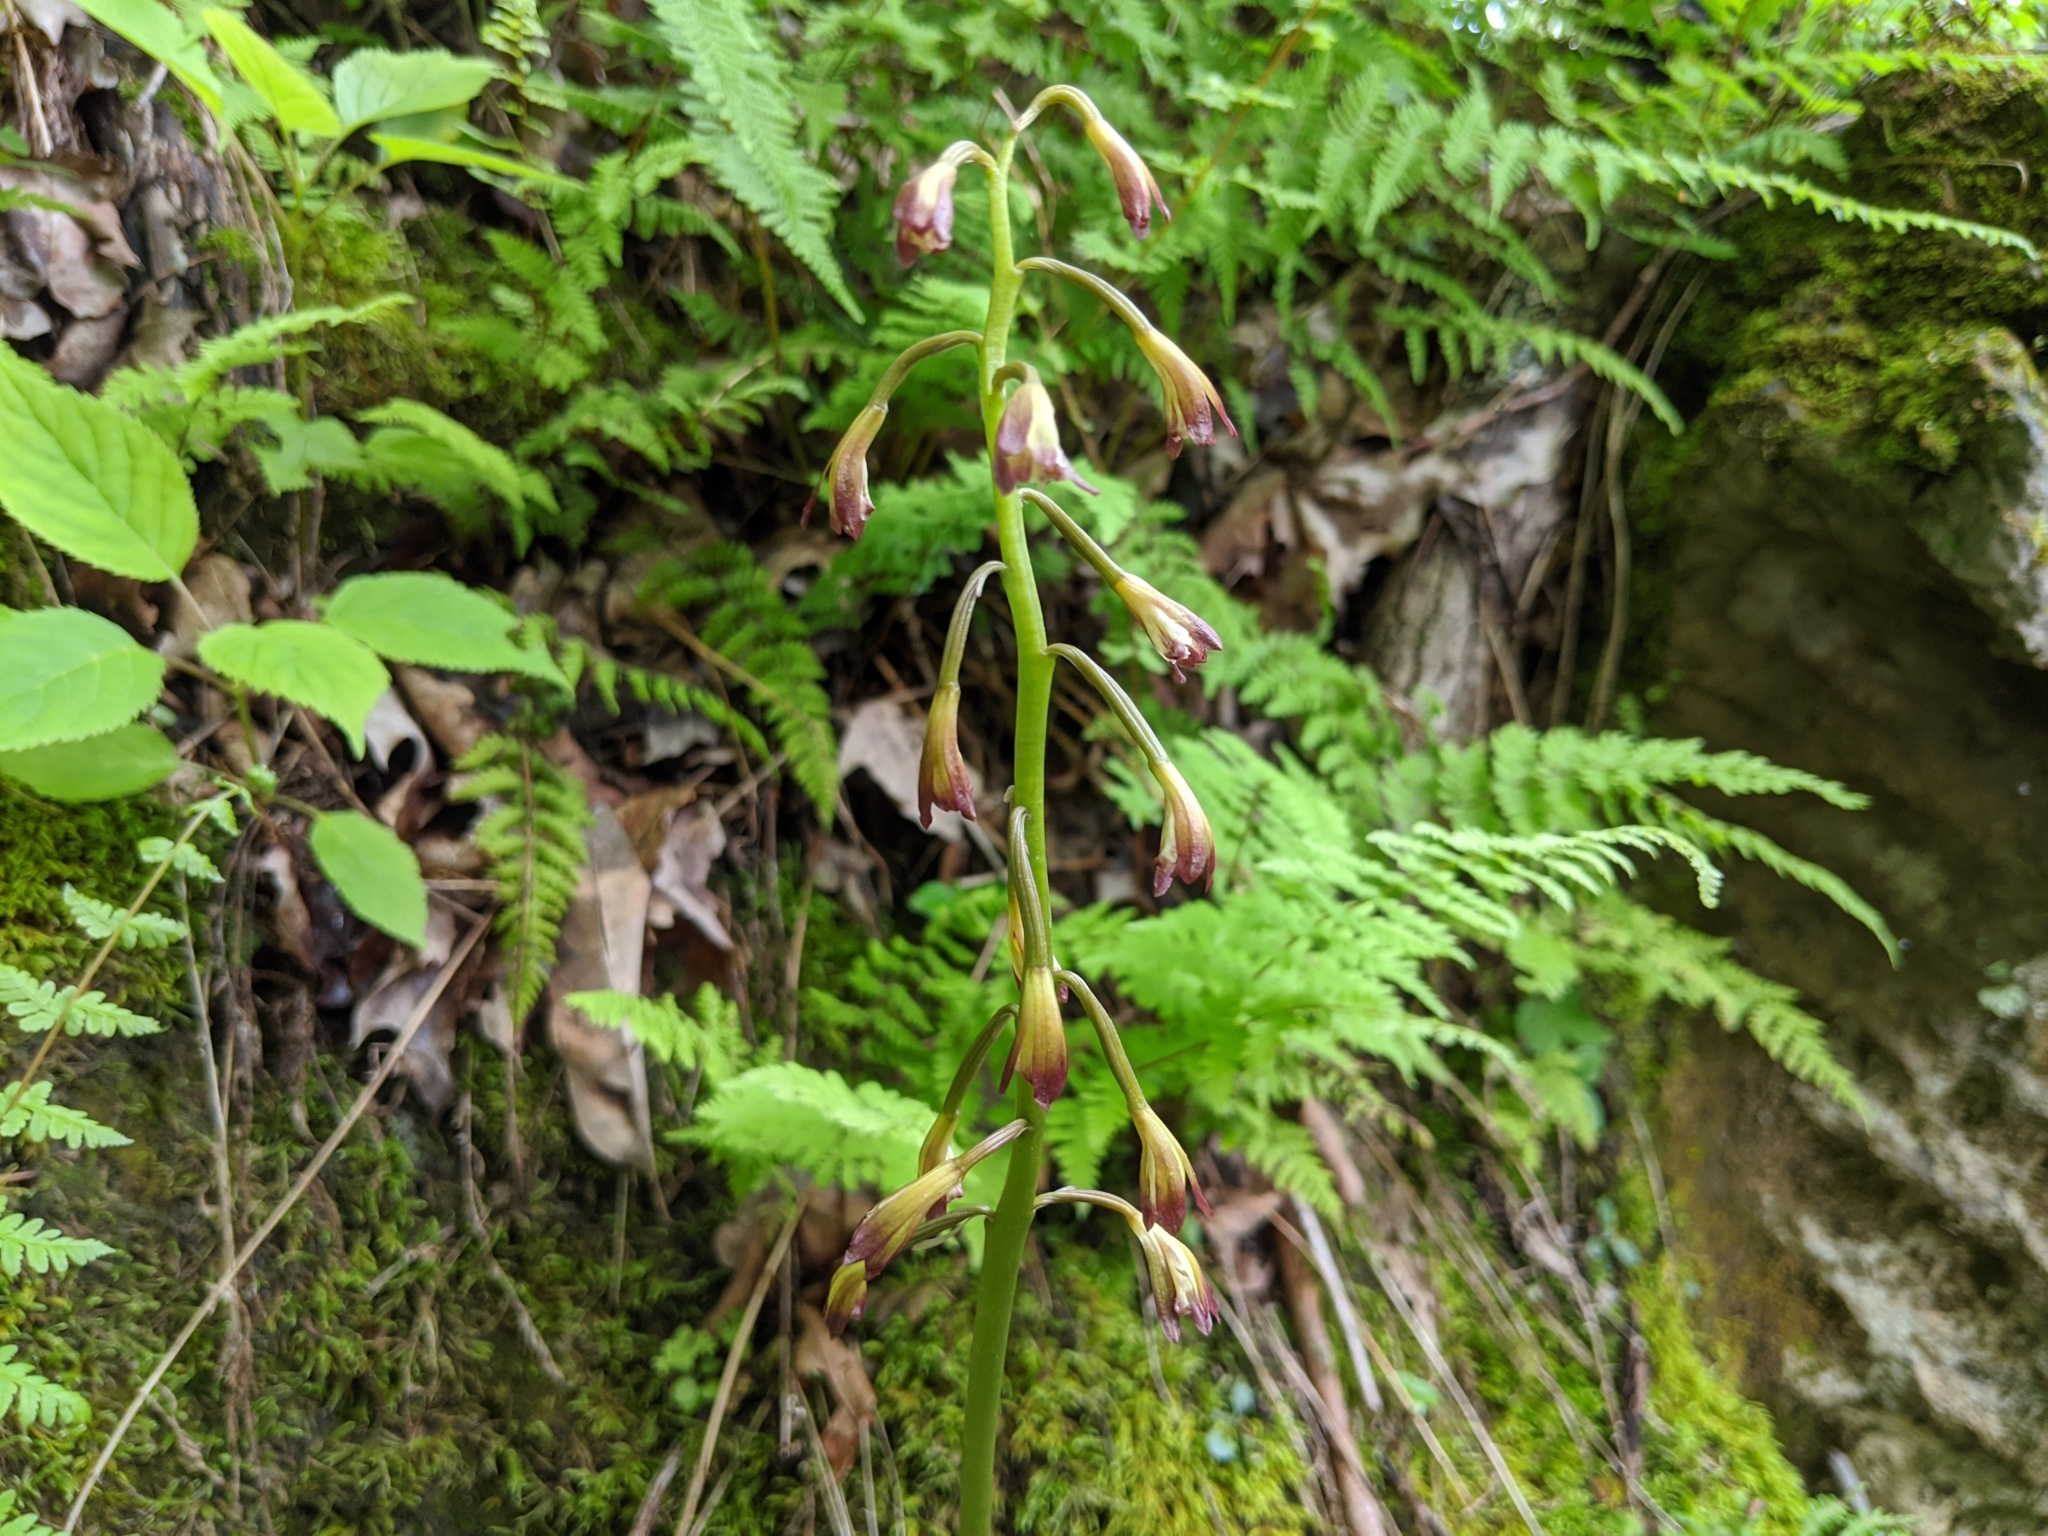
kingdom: Plantae
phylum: Tracheophyta
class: Liliopsida
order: Asparagales
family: Orchidaceae
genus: Aplectrum
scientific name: Aplectrum hyemale
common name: Adam-and-eve
